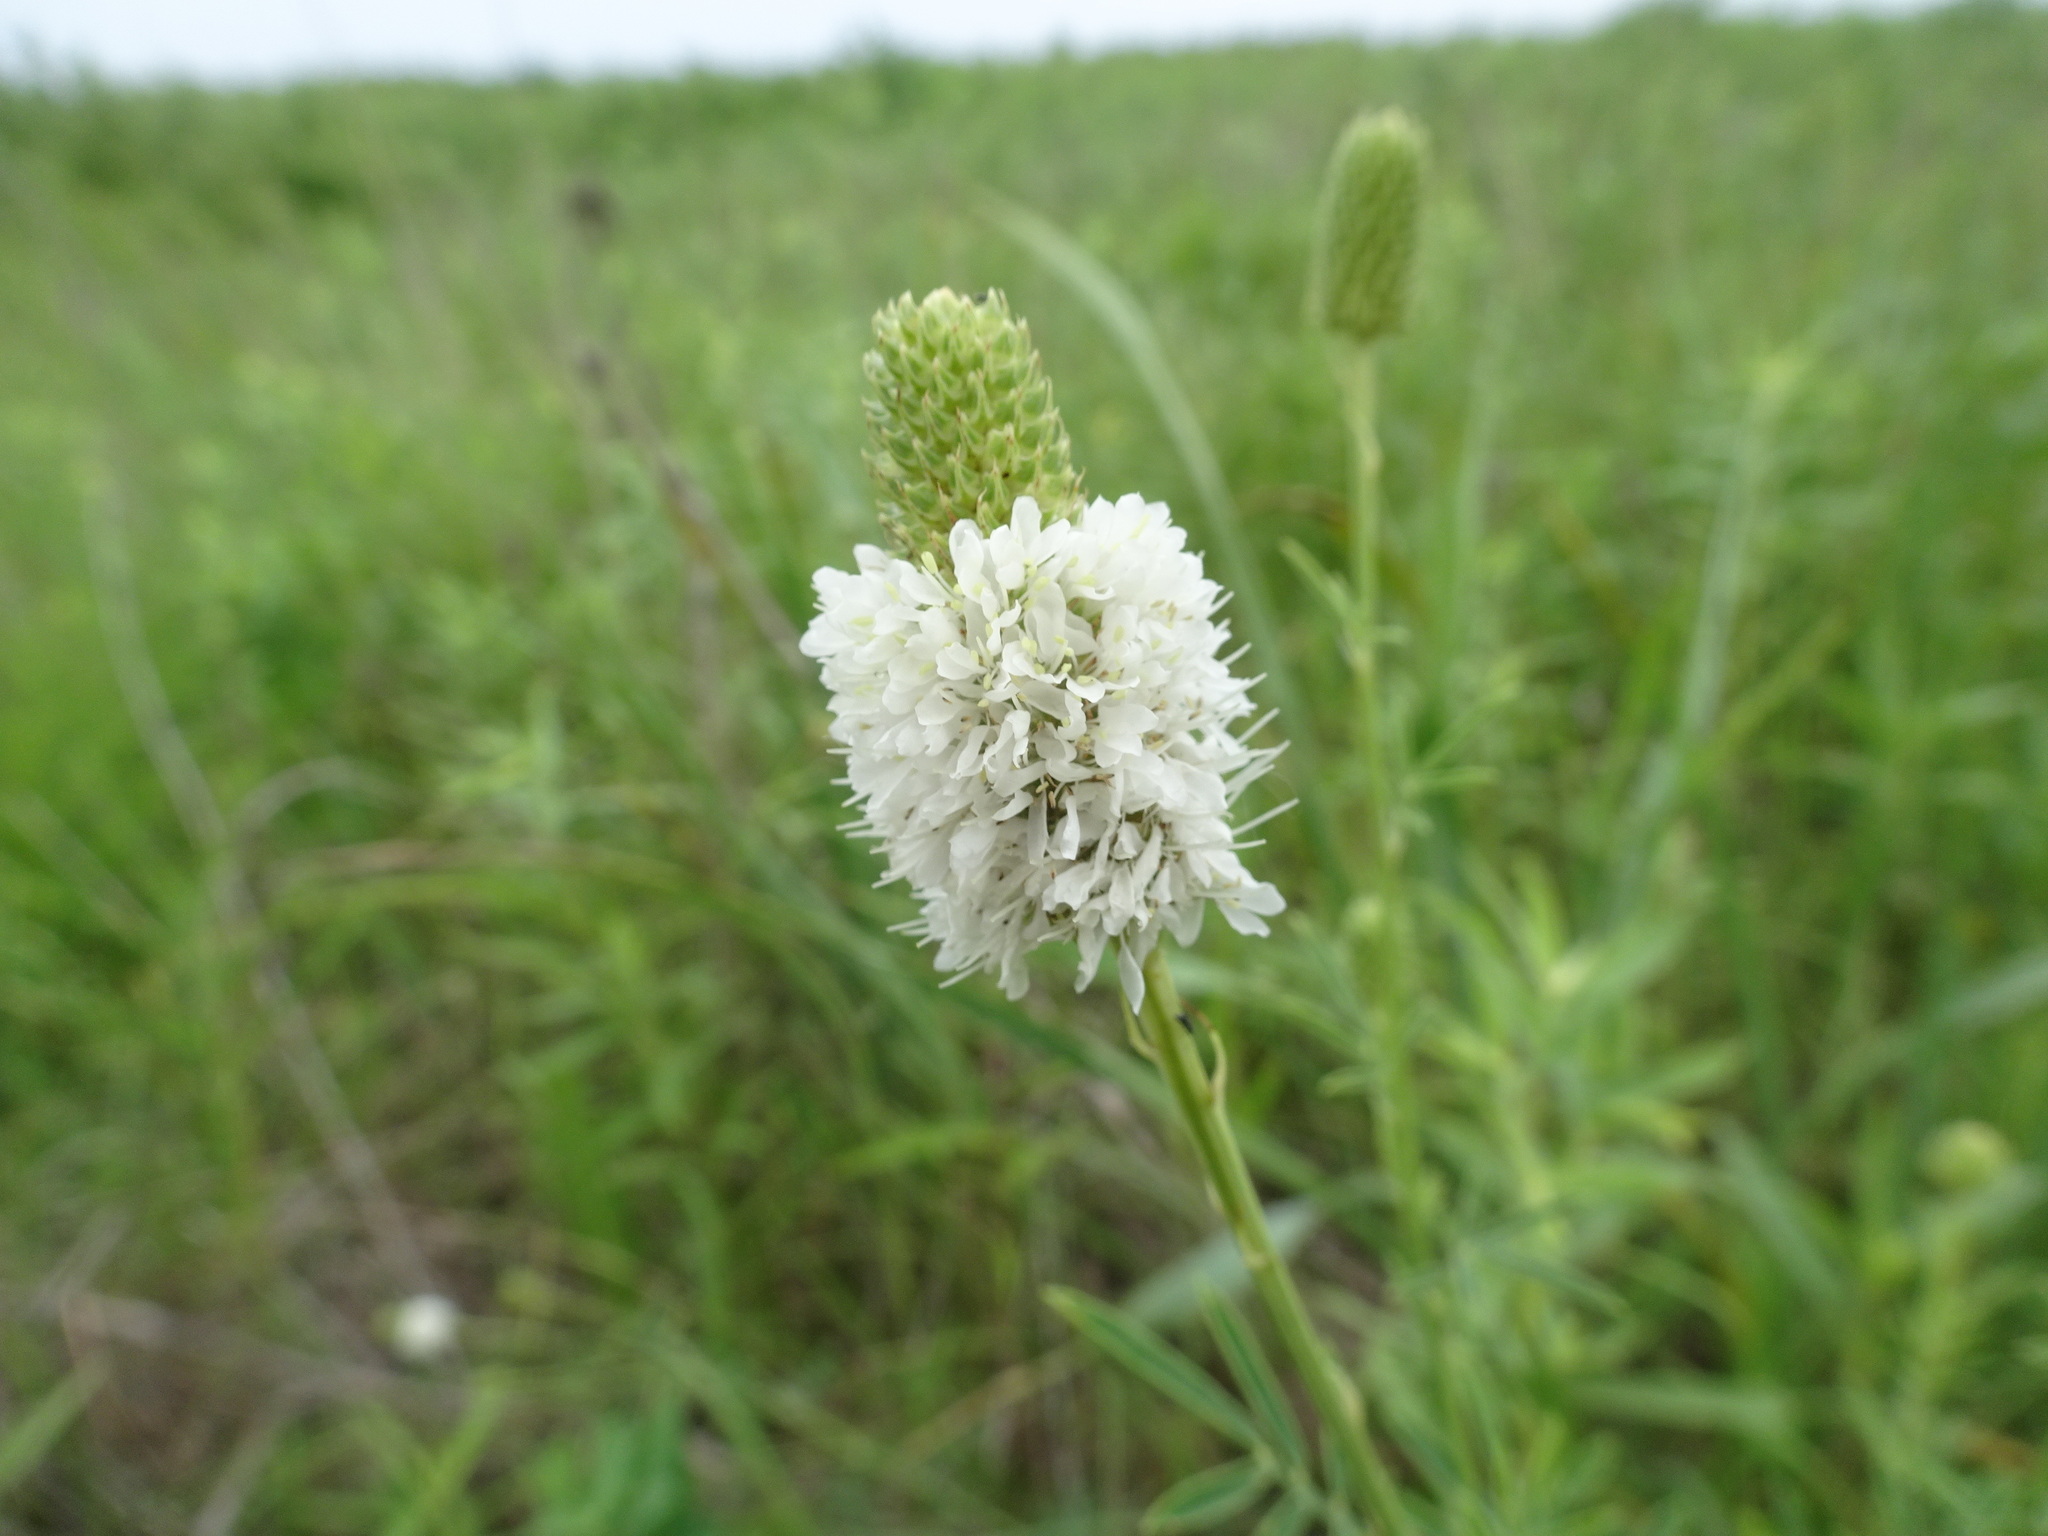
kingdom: Plantae
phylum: Tracheophyta
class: Magnoliopsida
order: Fabales
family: Fabaceae
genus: Dalea
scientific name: Dalea candida
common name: White prairie-clover
